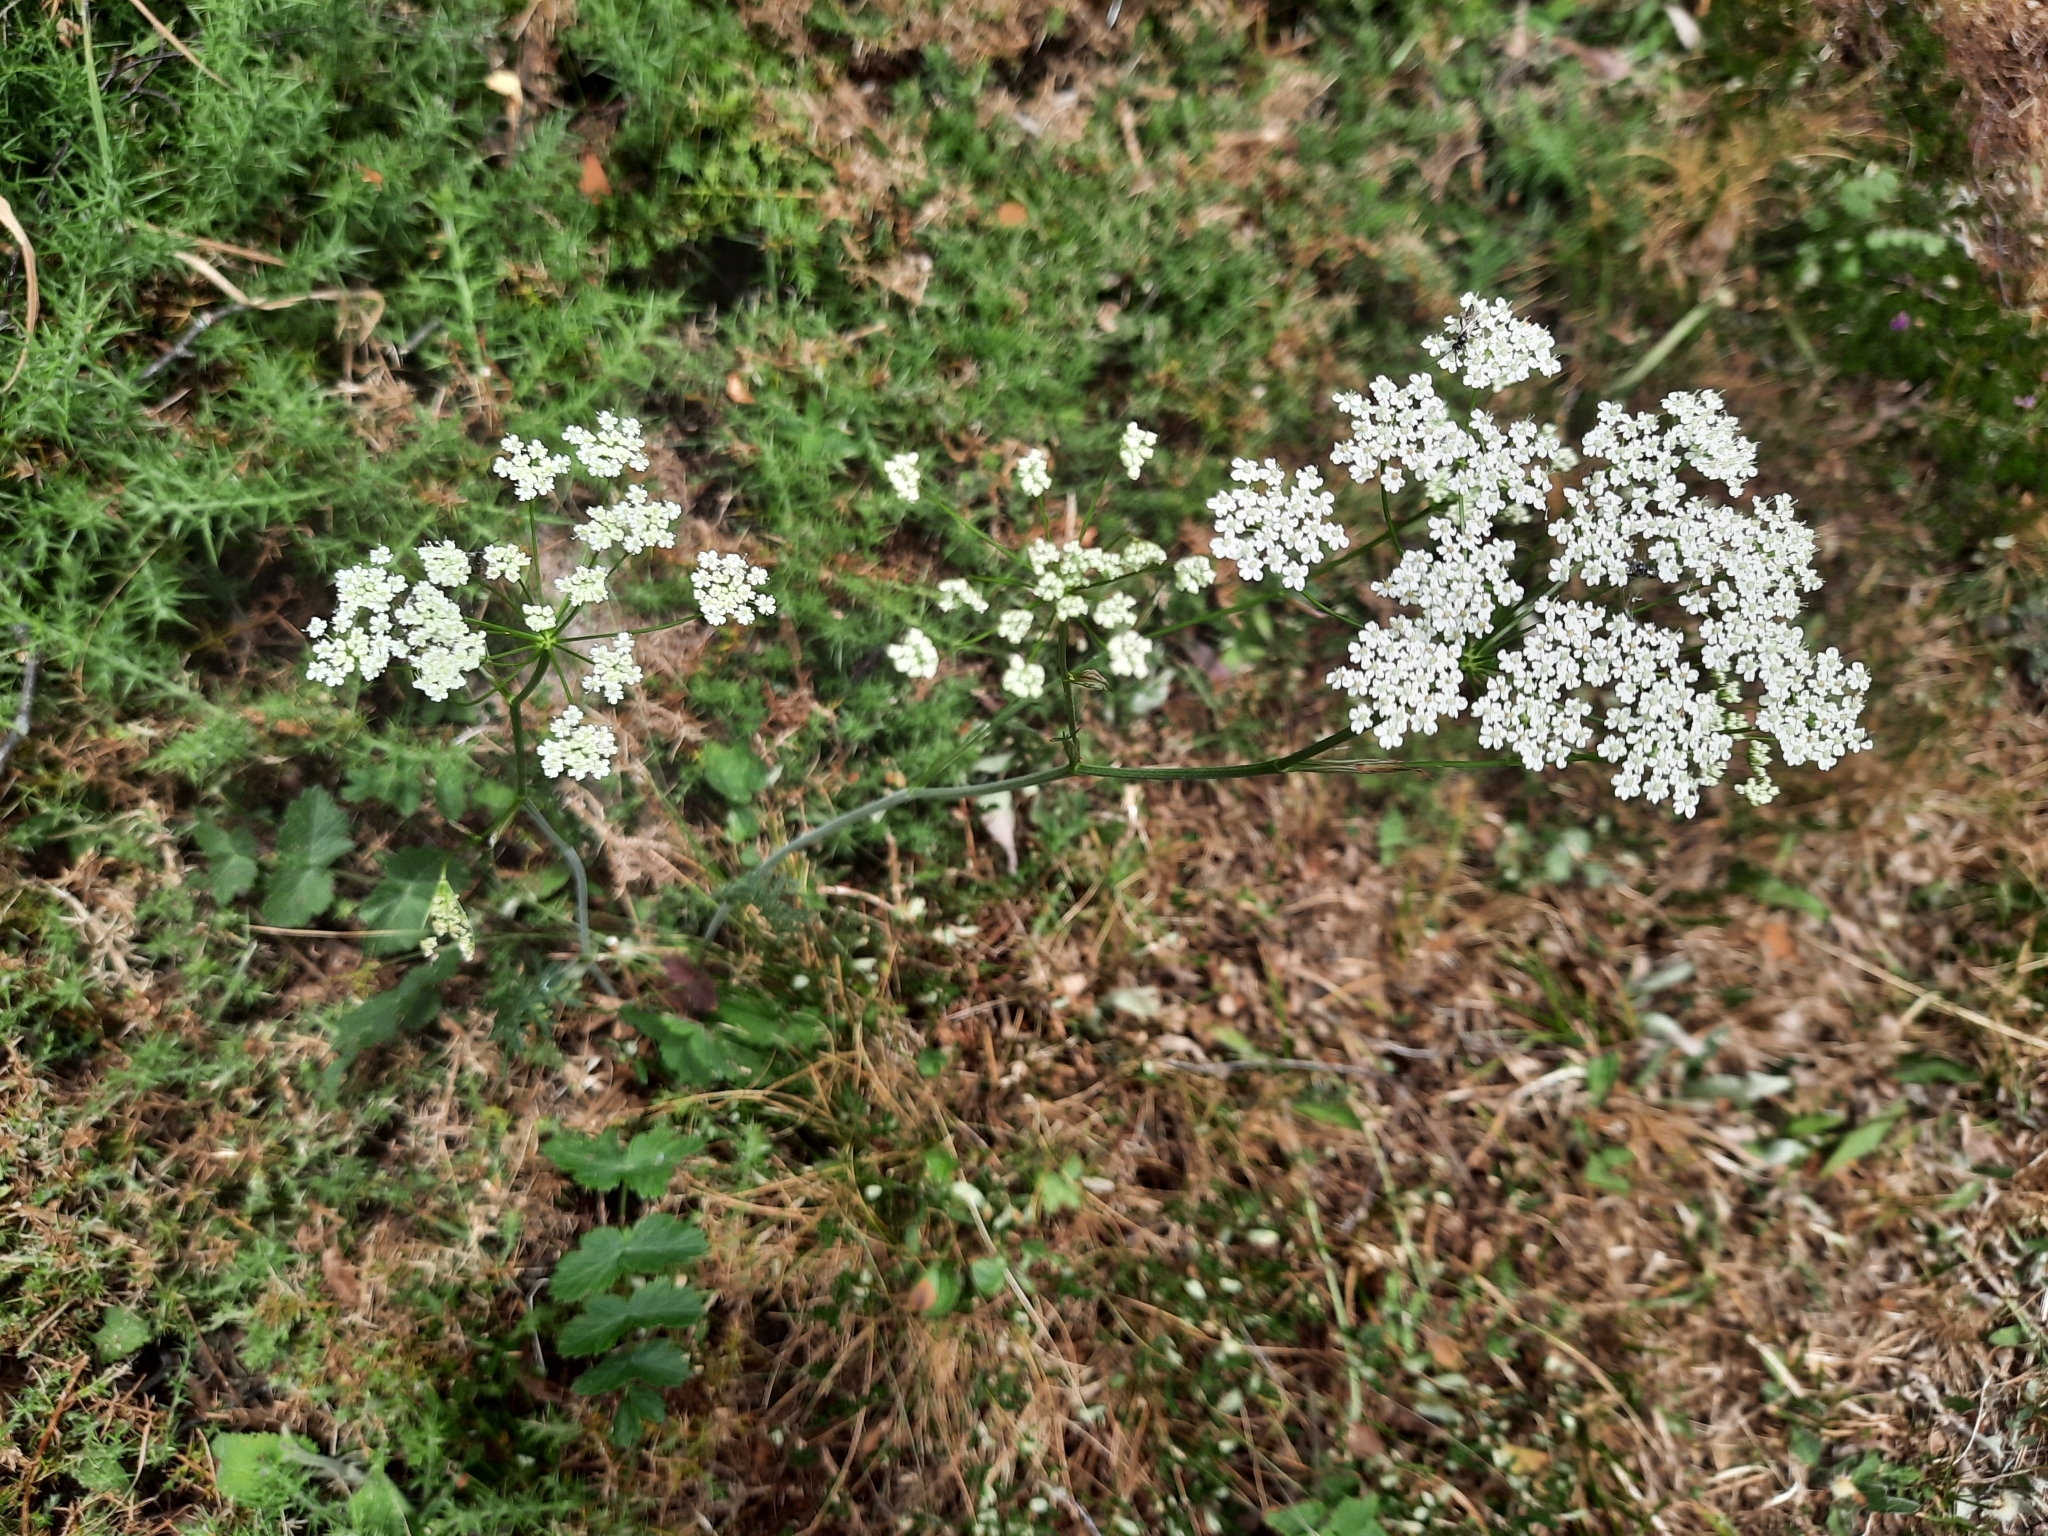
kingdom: Plantae
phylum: Tracheophyta
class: Magnoliopsida
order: Apiales
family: Apiaceae
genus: Pimpinella
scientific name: Pimpinella saxifraga
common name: Burnet-saxifrage
